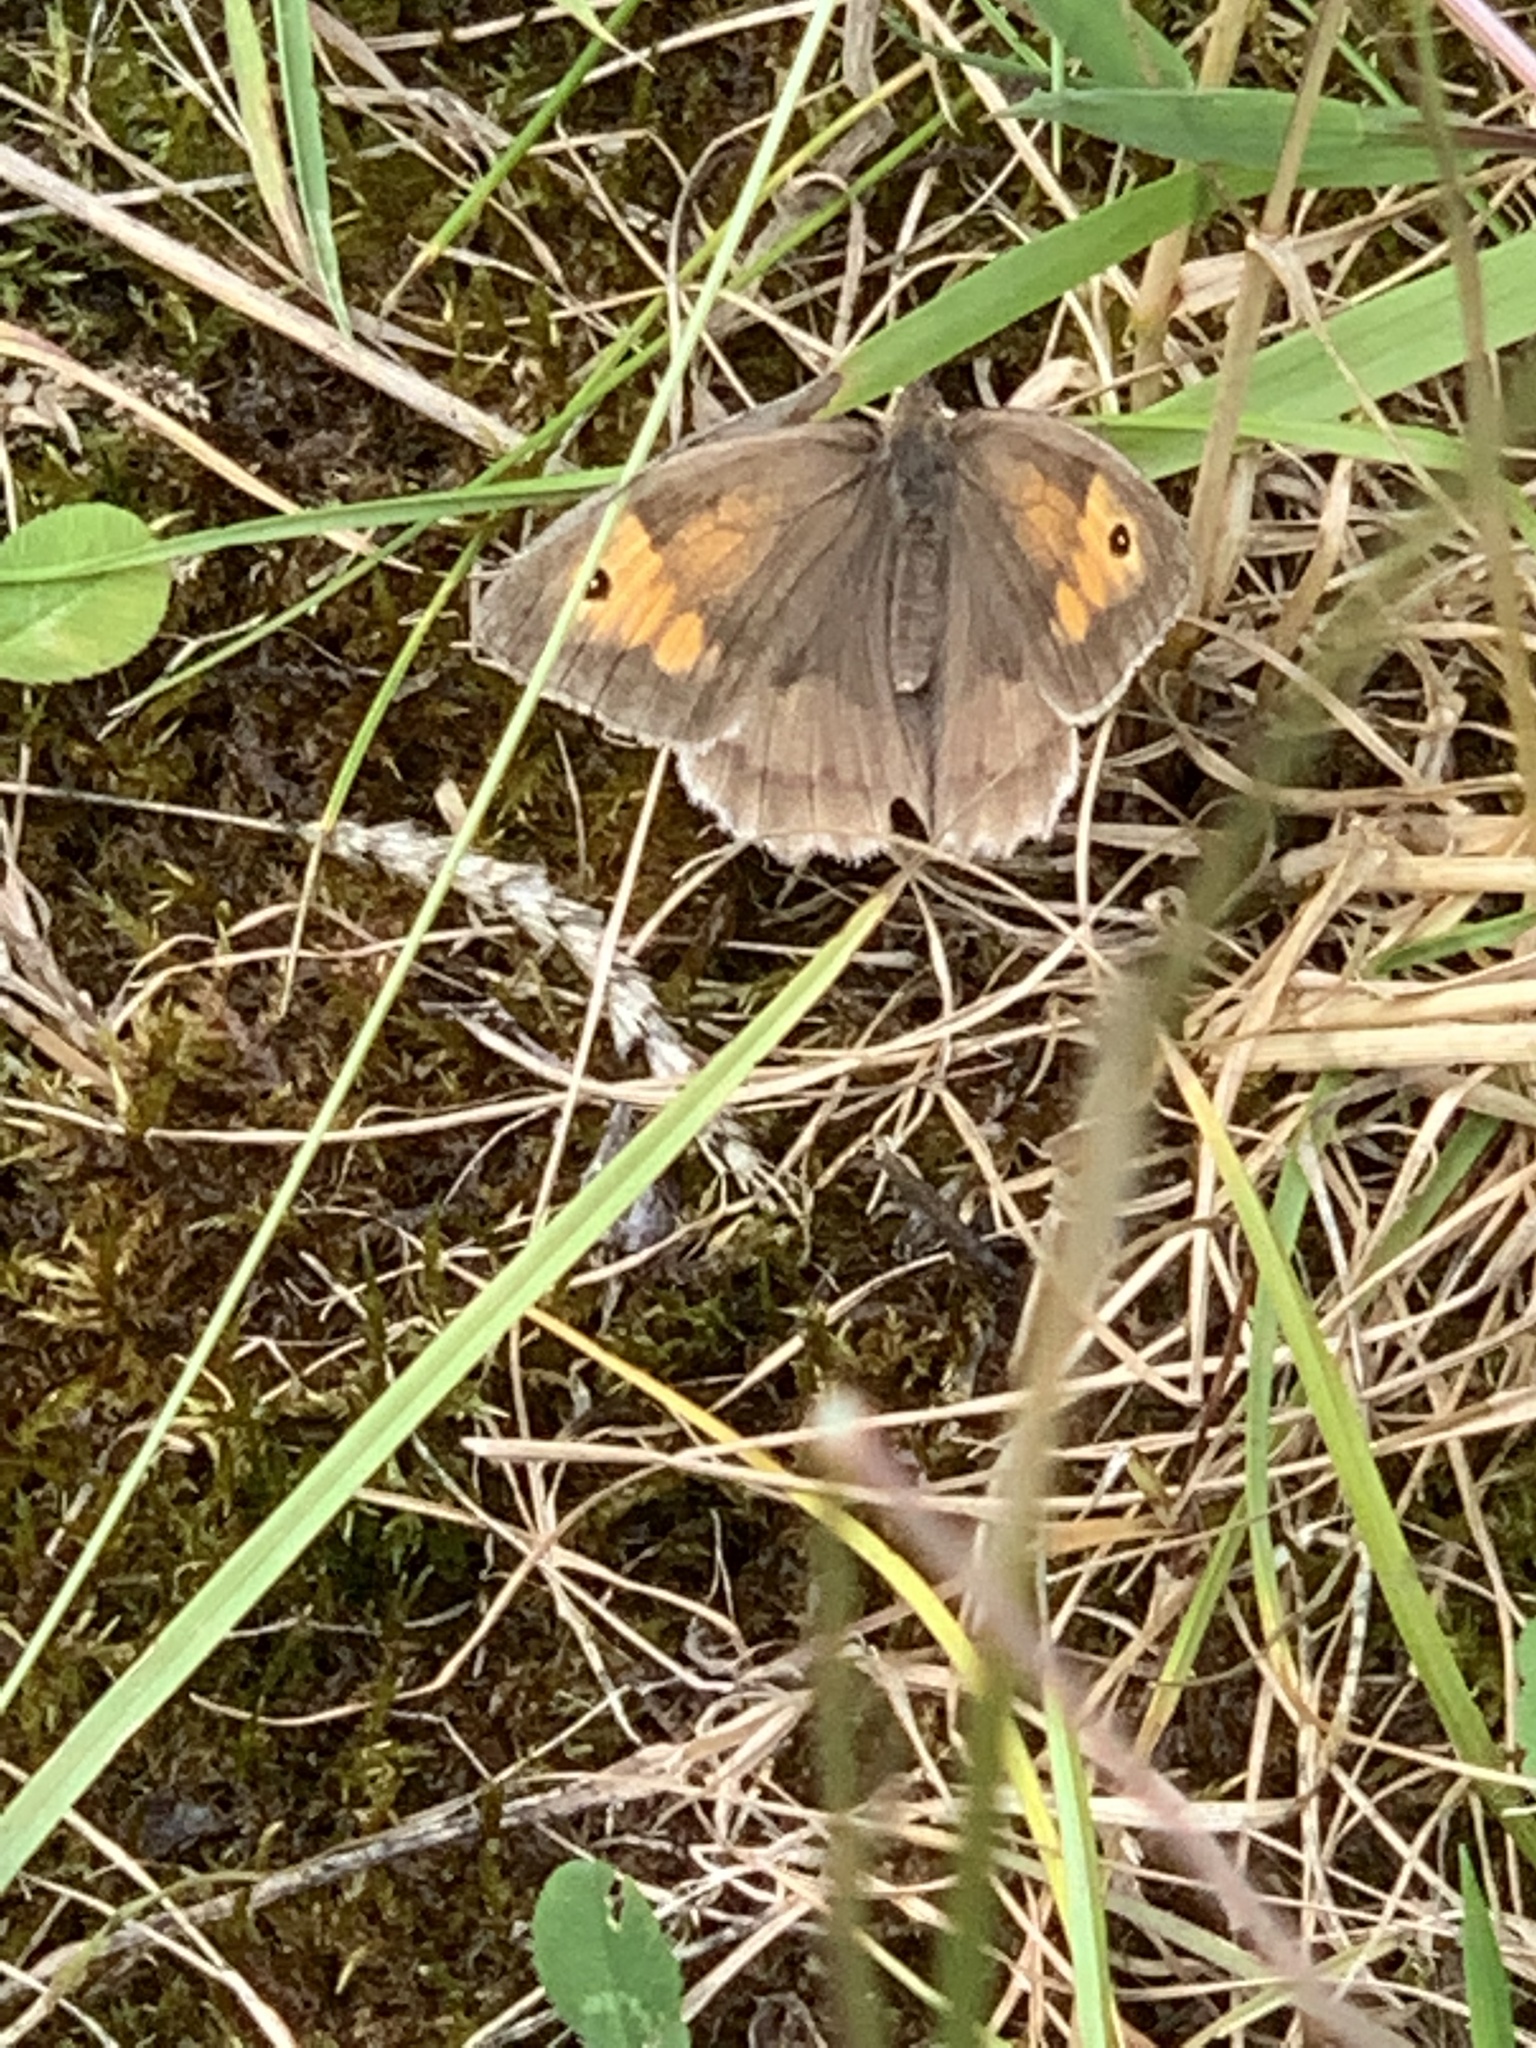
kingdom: Animalia
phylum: Arthropoda
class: Insecta
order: Lepidoptera
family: Nymphalidae
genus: Maniola
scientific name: Maniola jurtina
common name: Meadow brown
